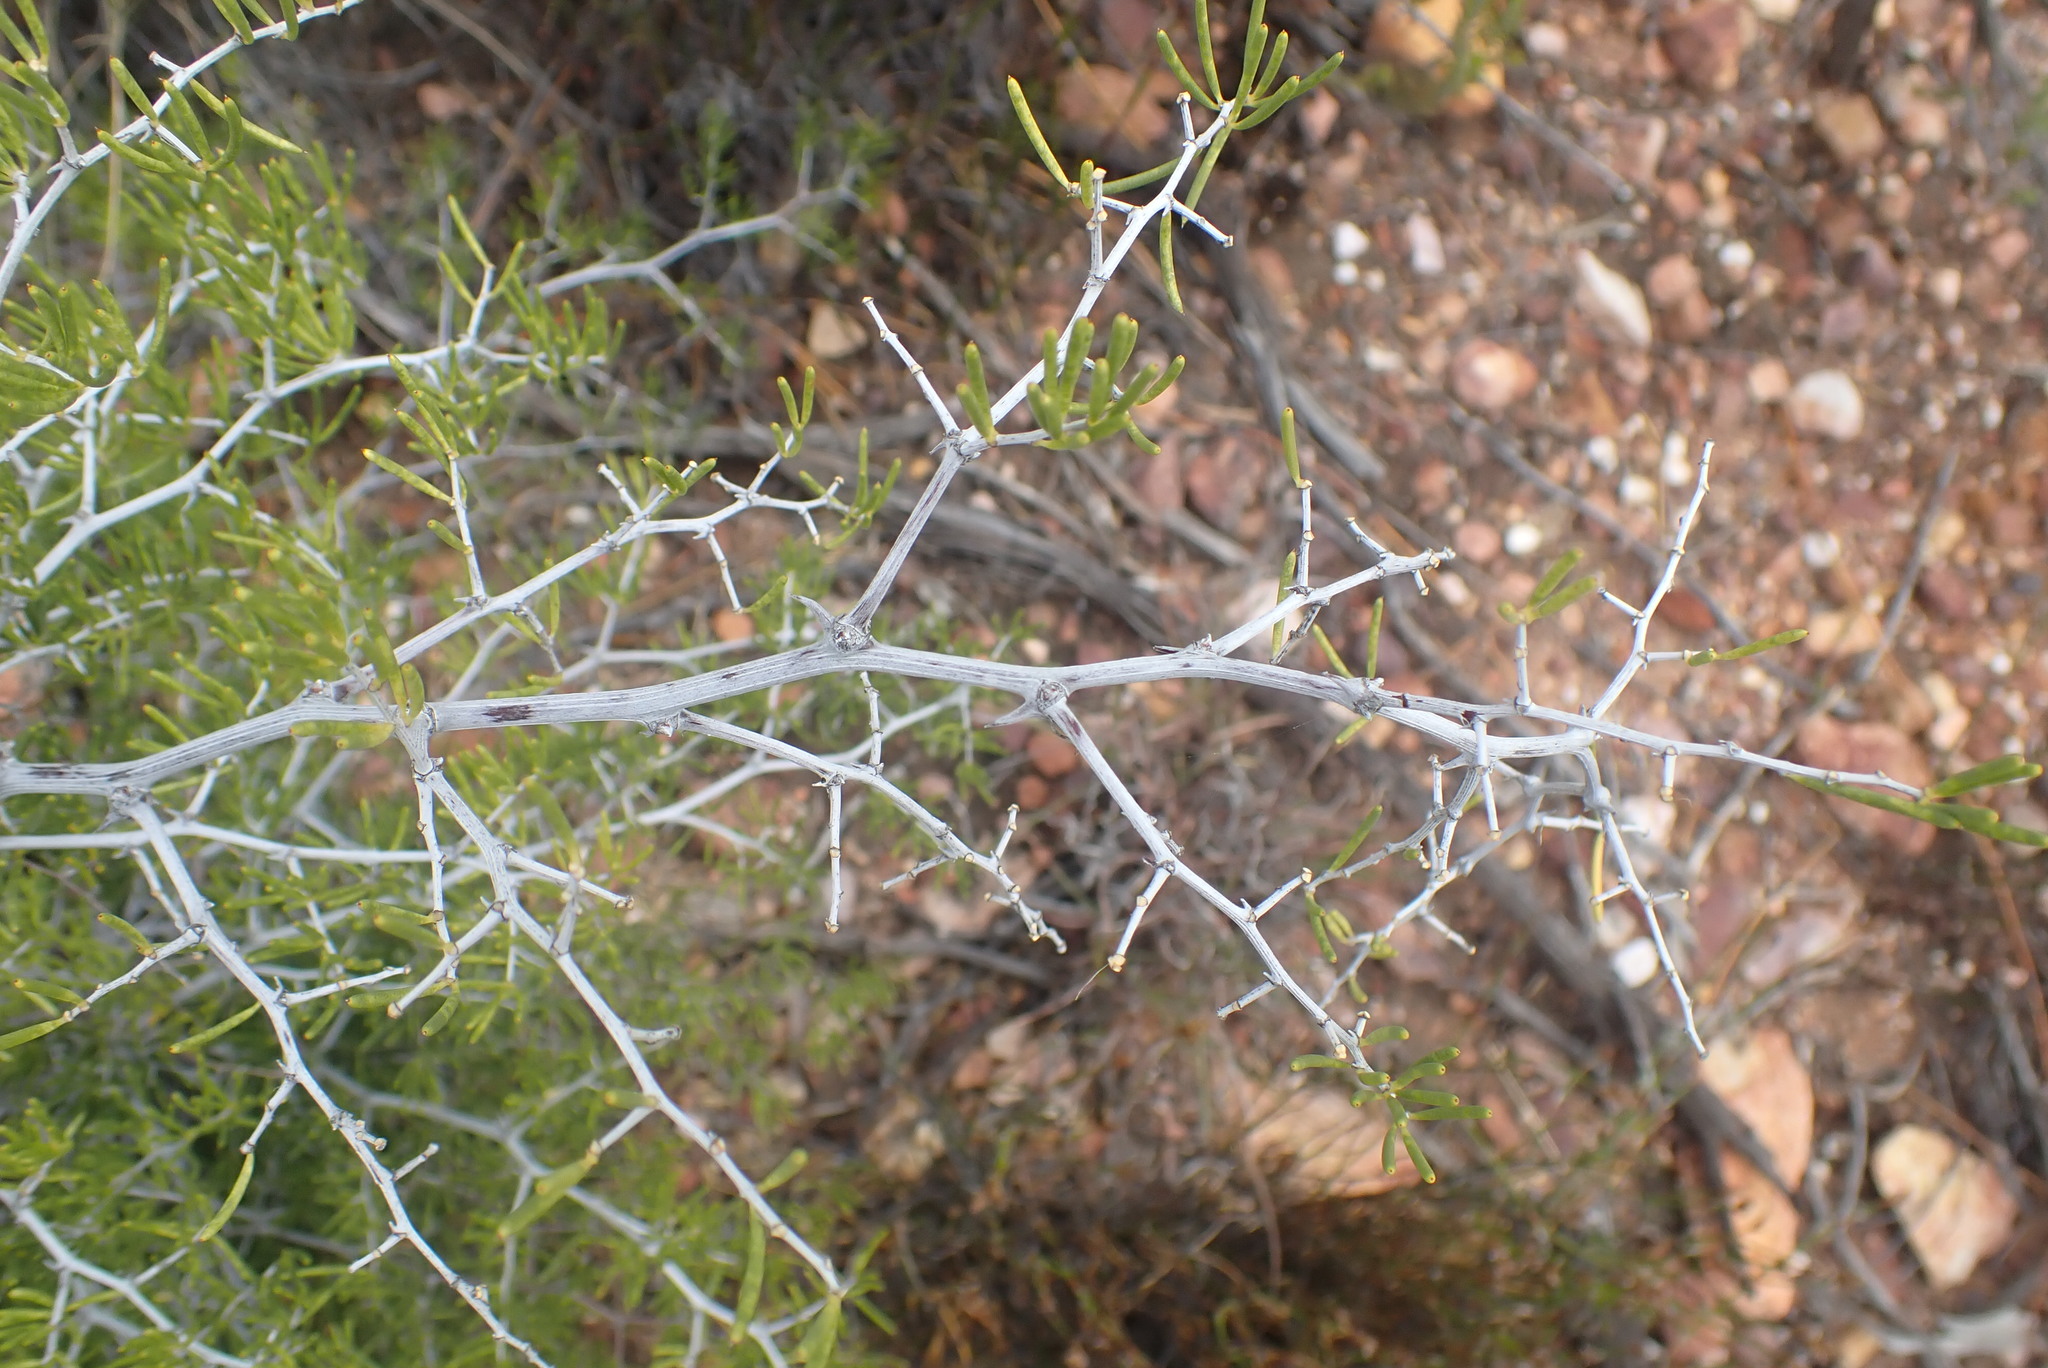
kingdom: Plantae
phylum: Tracheophyta
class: Liliopsida
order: Asparagales
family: Asparagaceae
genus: Asparagus
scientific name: Asparagus lignosus
